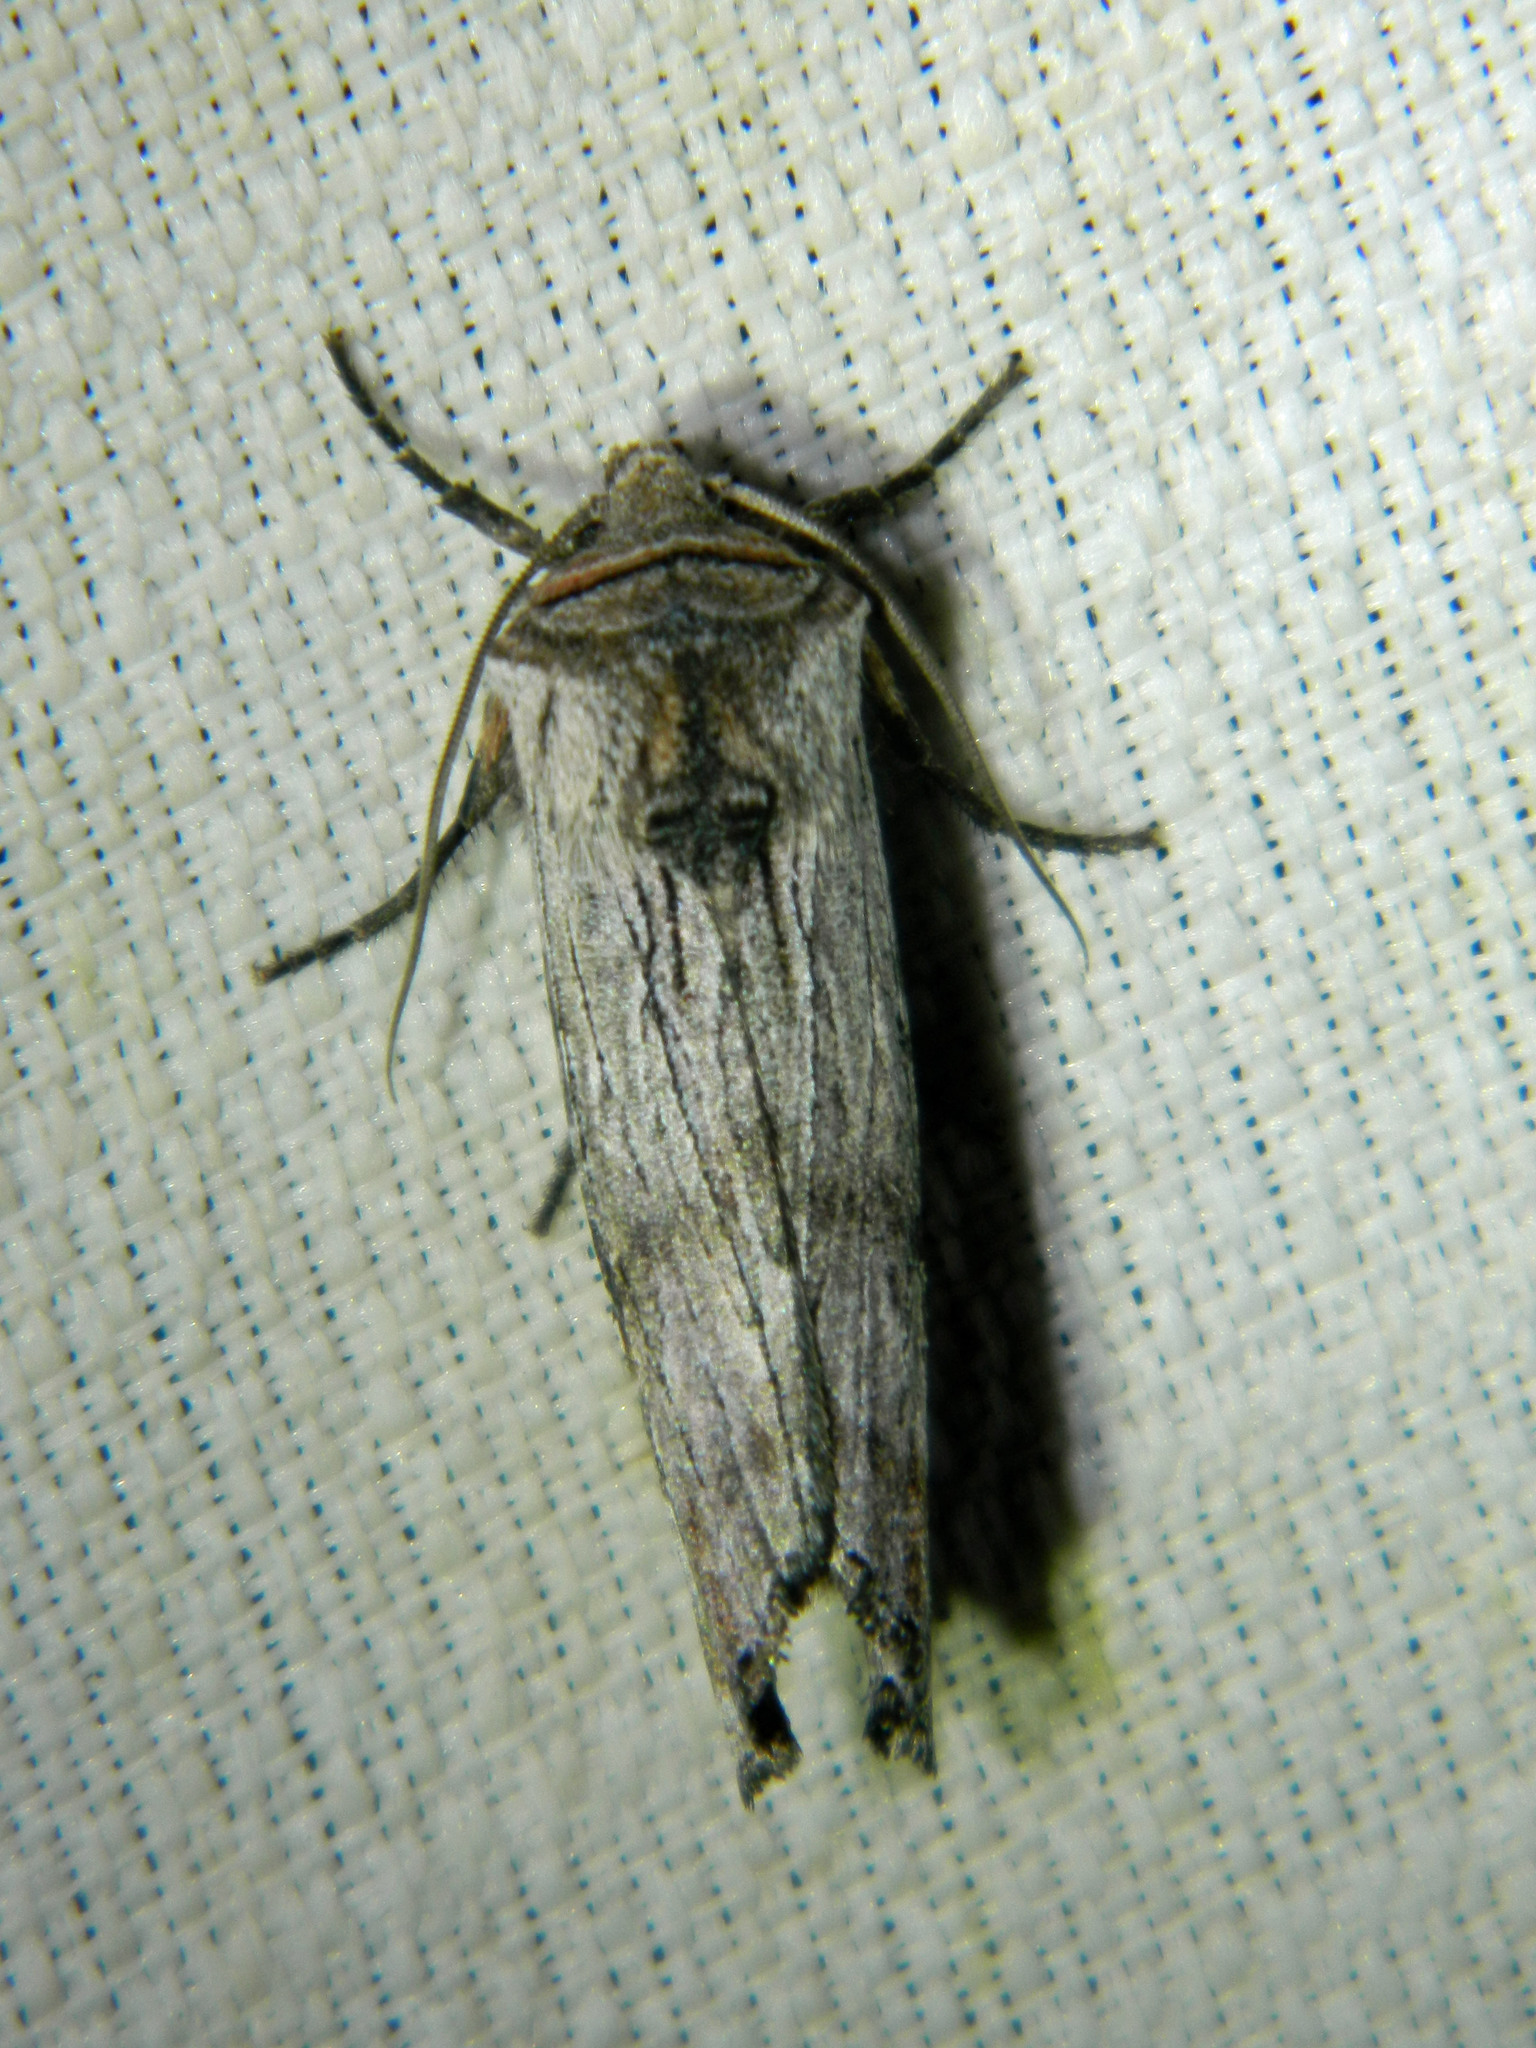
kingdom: Animalia
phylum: Arthropoda
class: Insecta
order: Lepidoptera
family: Noctuidae
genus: Xylena
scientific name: Xylena germana
